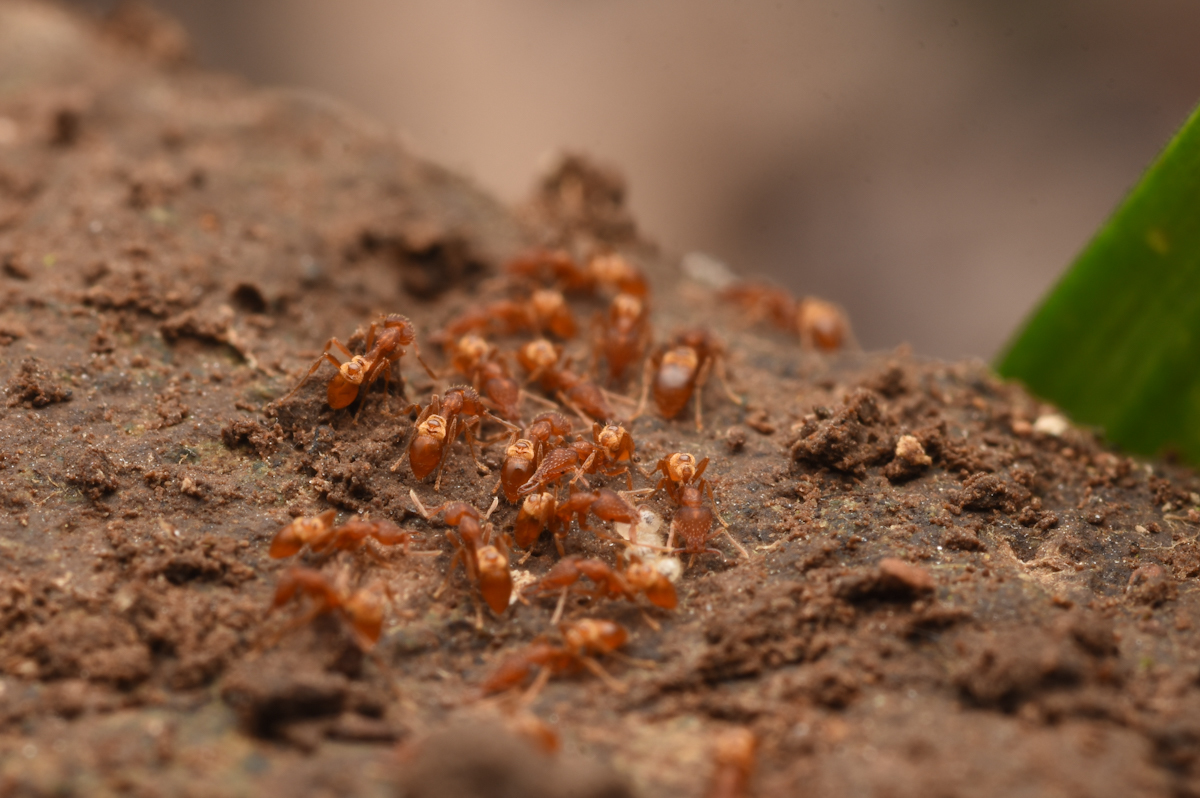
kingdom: Animalia
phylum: Arthropoda
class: Insecta
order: Hymenoptera
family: Formicidae
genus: Strumigenys
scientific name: Strumigenys kumadori
